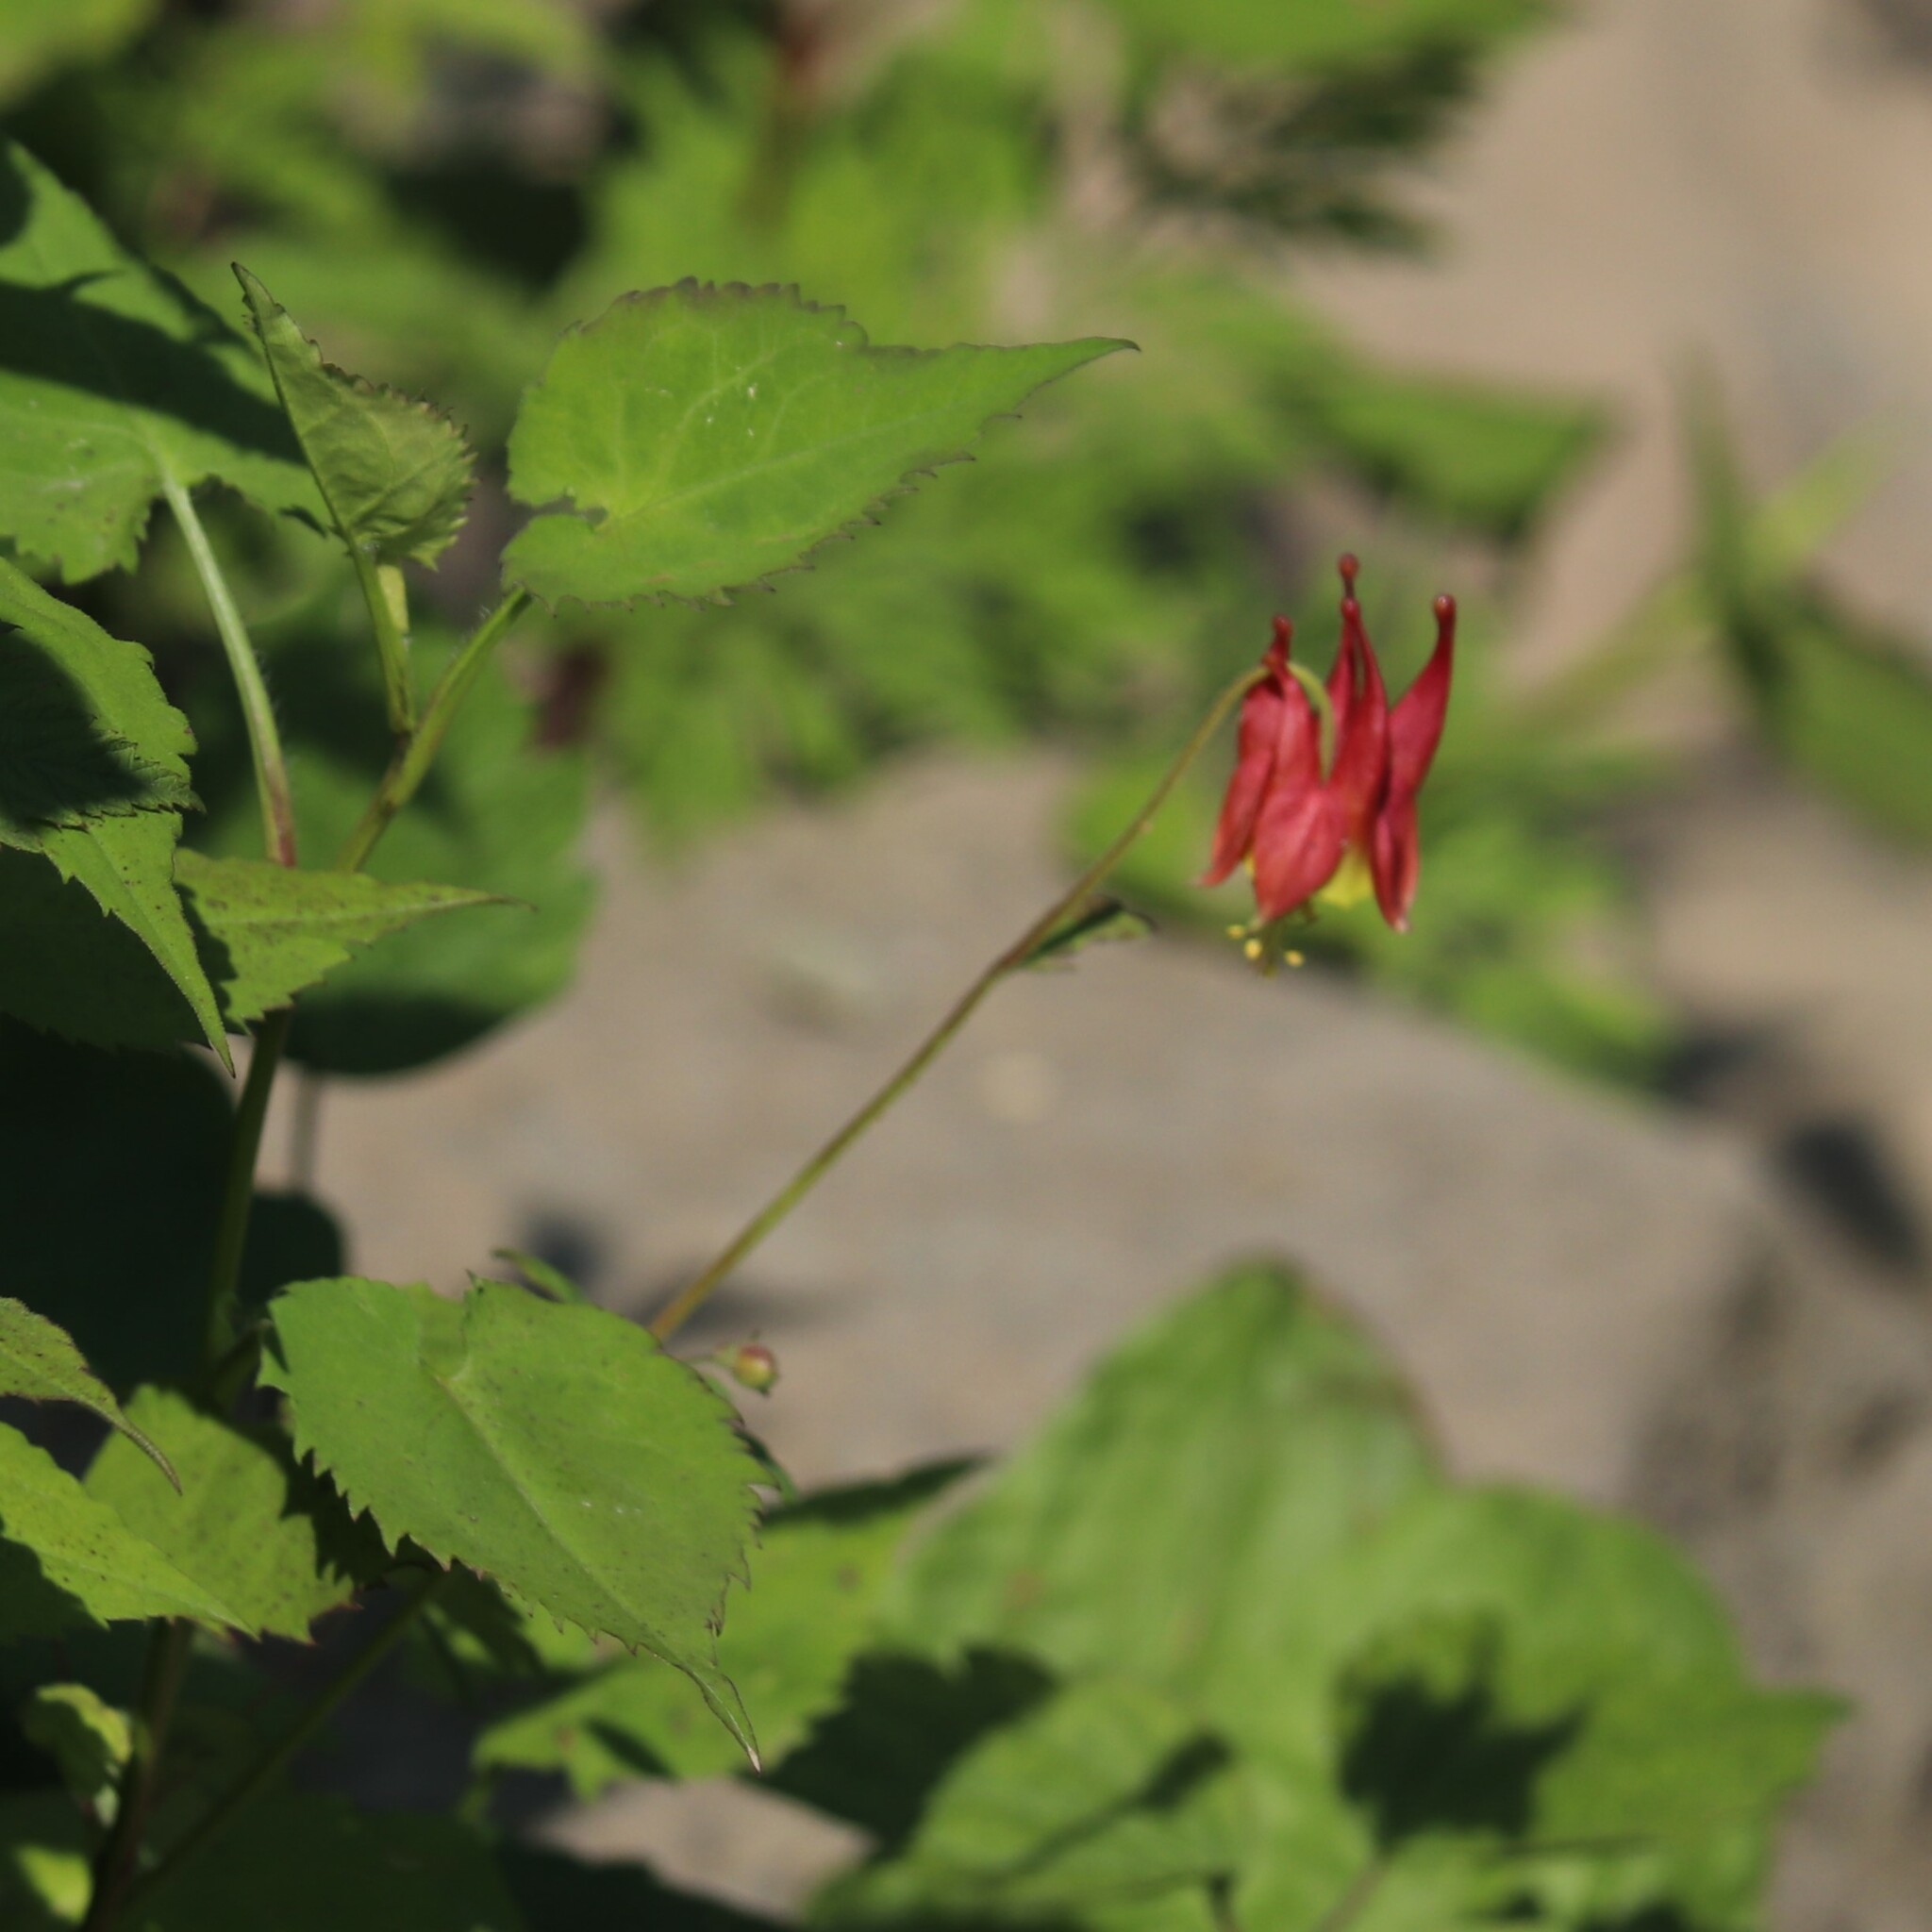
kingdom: Plantae
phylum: Tracheophyta
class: Magnoliopsida
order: Ranunculales
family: Ranunculaceae
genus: Aquilegia
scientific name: Aquilegia canadensis
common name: American columbine
